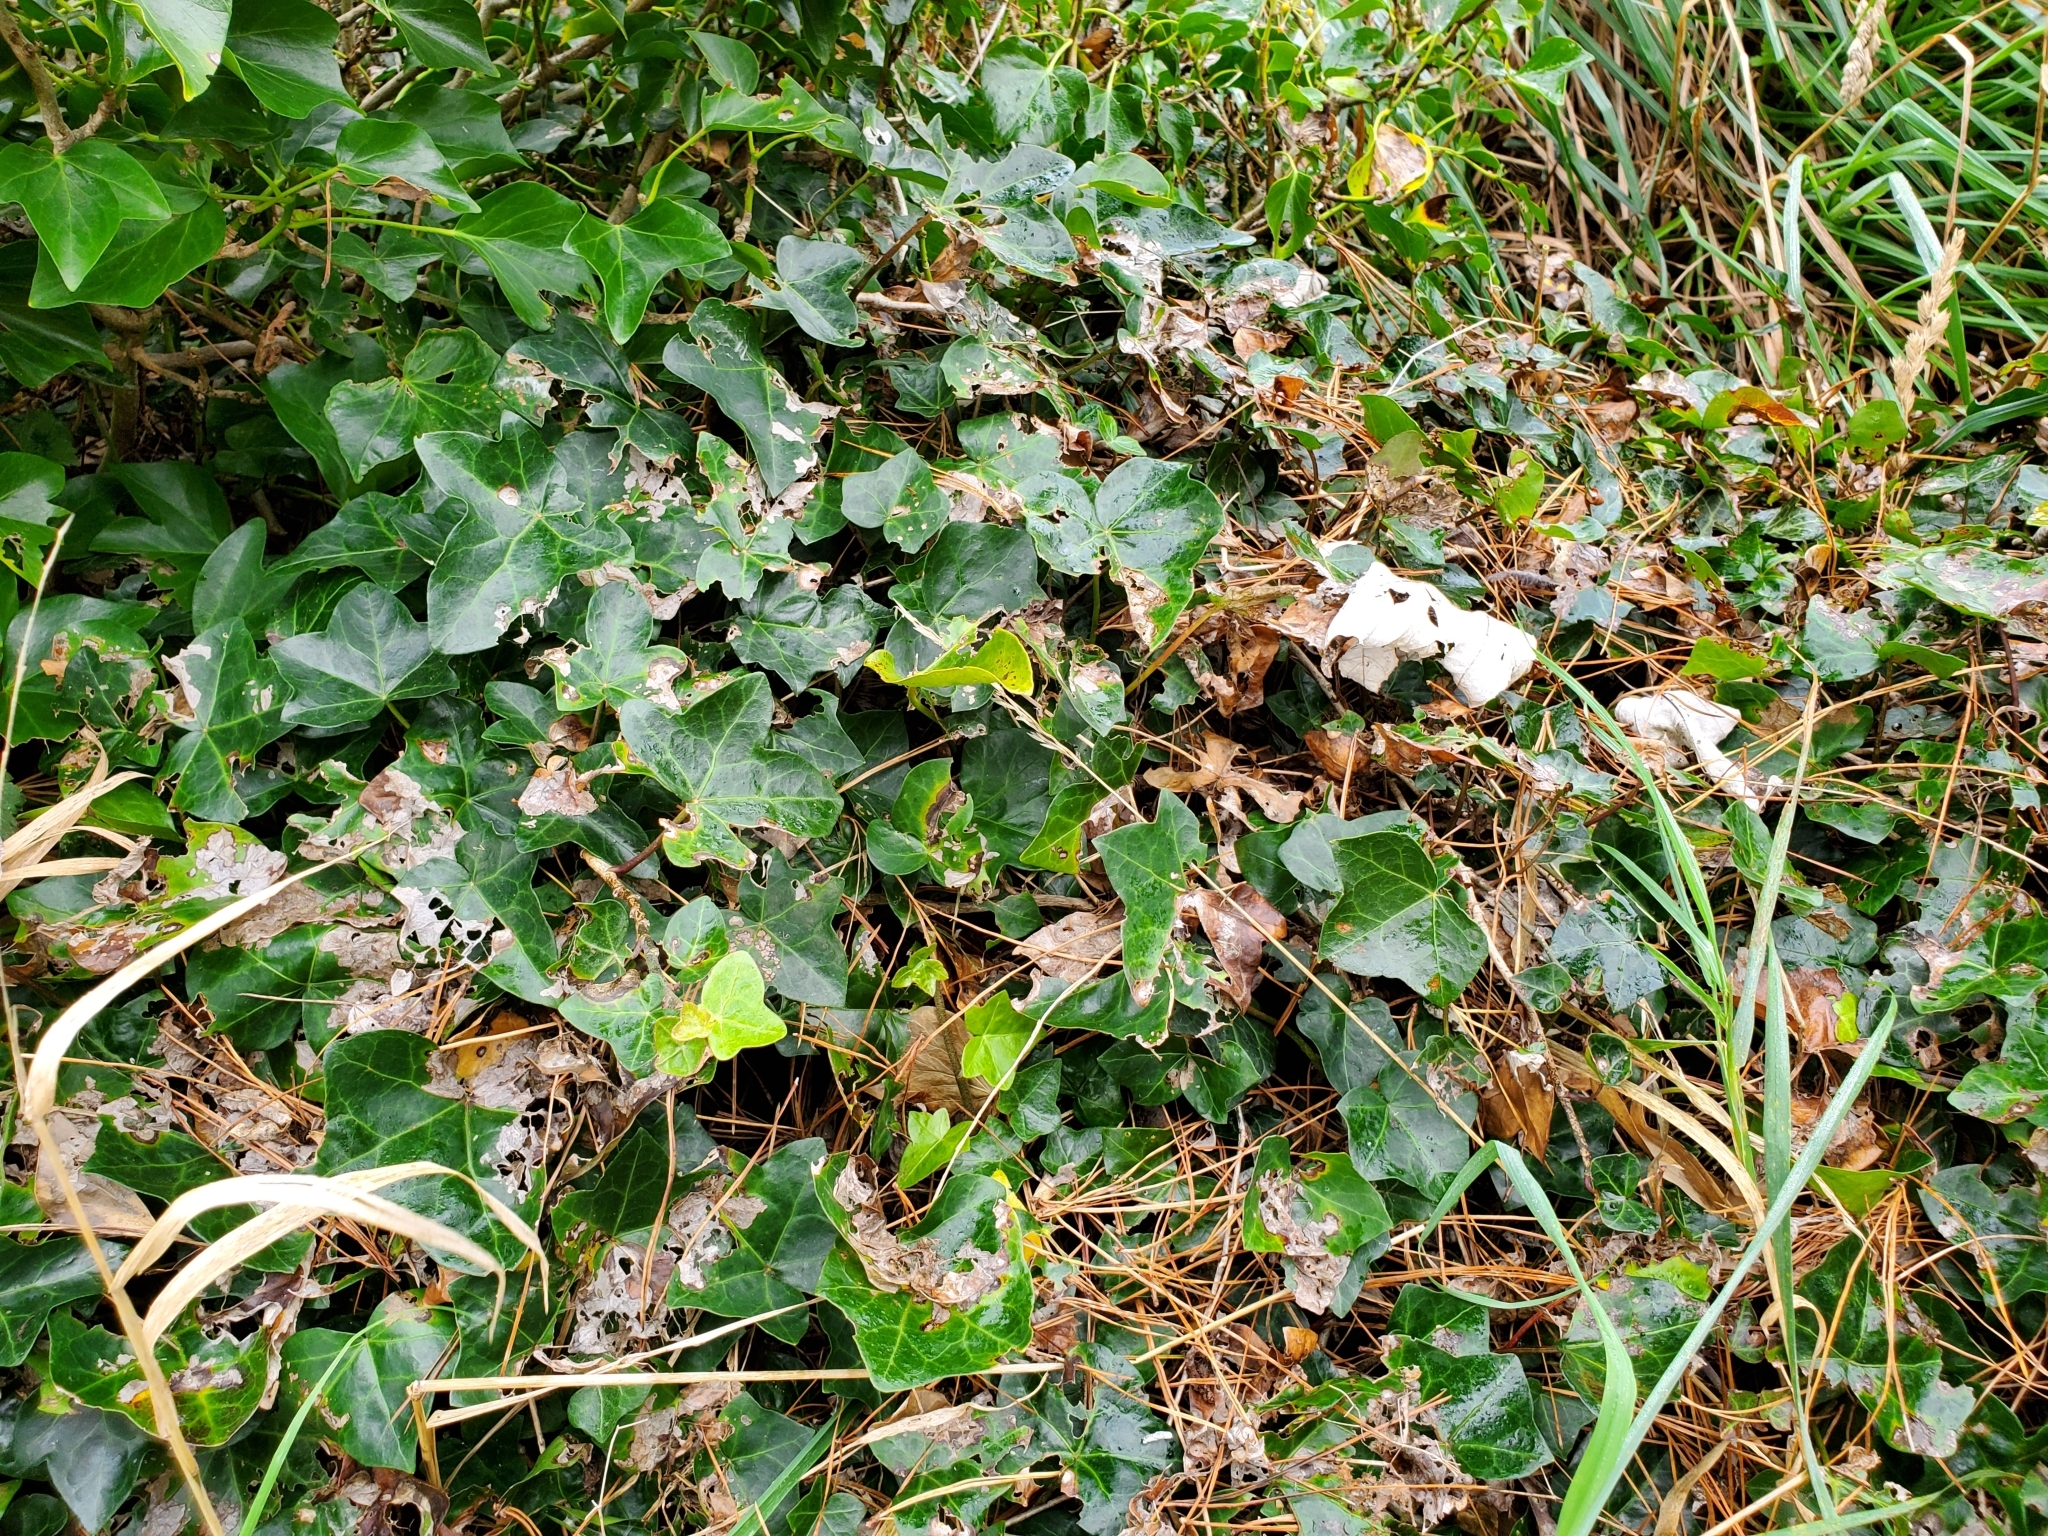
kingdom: Plantae
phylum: Tracheophyta
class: Magnoliopsida
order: Apiales
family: Araliaceae
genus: Hedera
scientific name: Hedera helix
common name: Ivy
